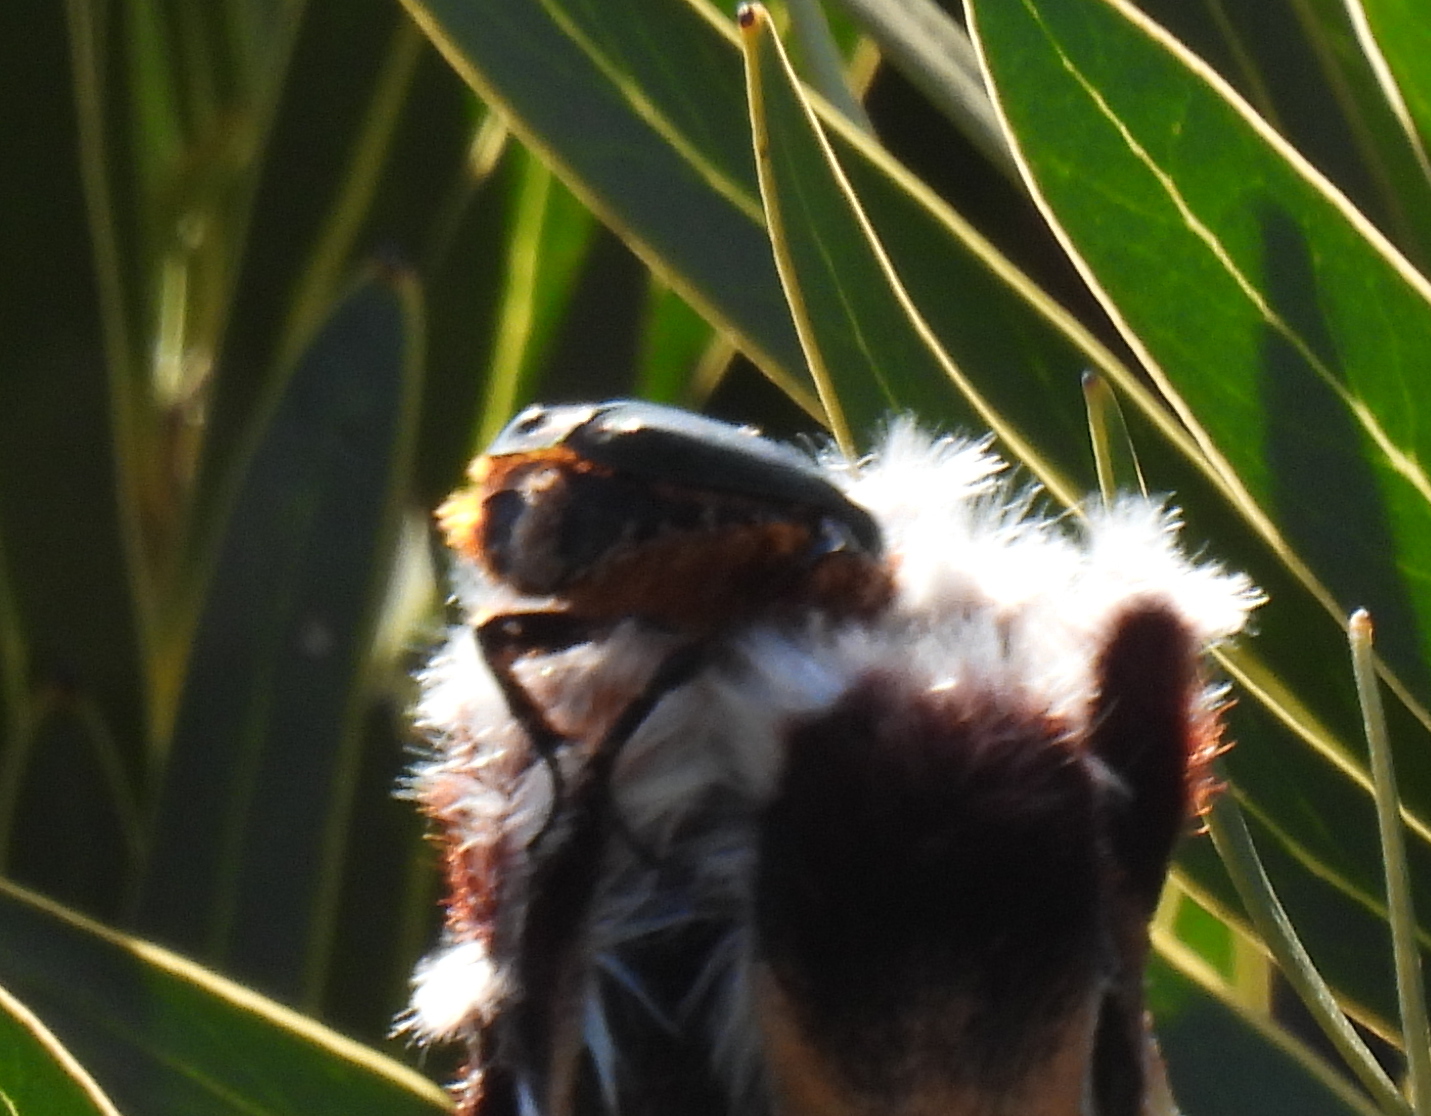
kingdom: Animalia
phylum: Arthropoda
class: Insecta
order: Coleoptera
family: Scarabaeidae
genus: Trichostetha
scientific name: Trichostetha fascicularis
